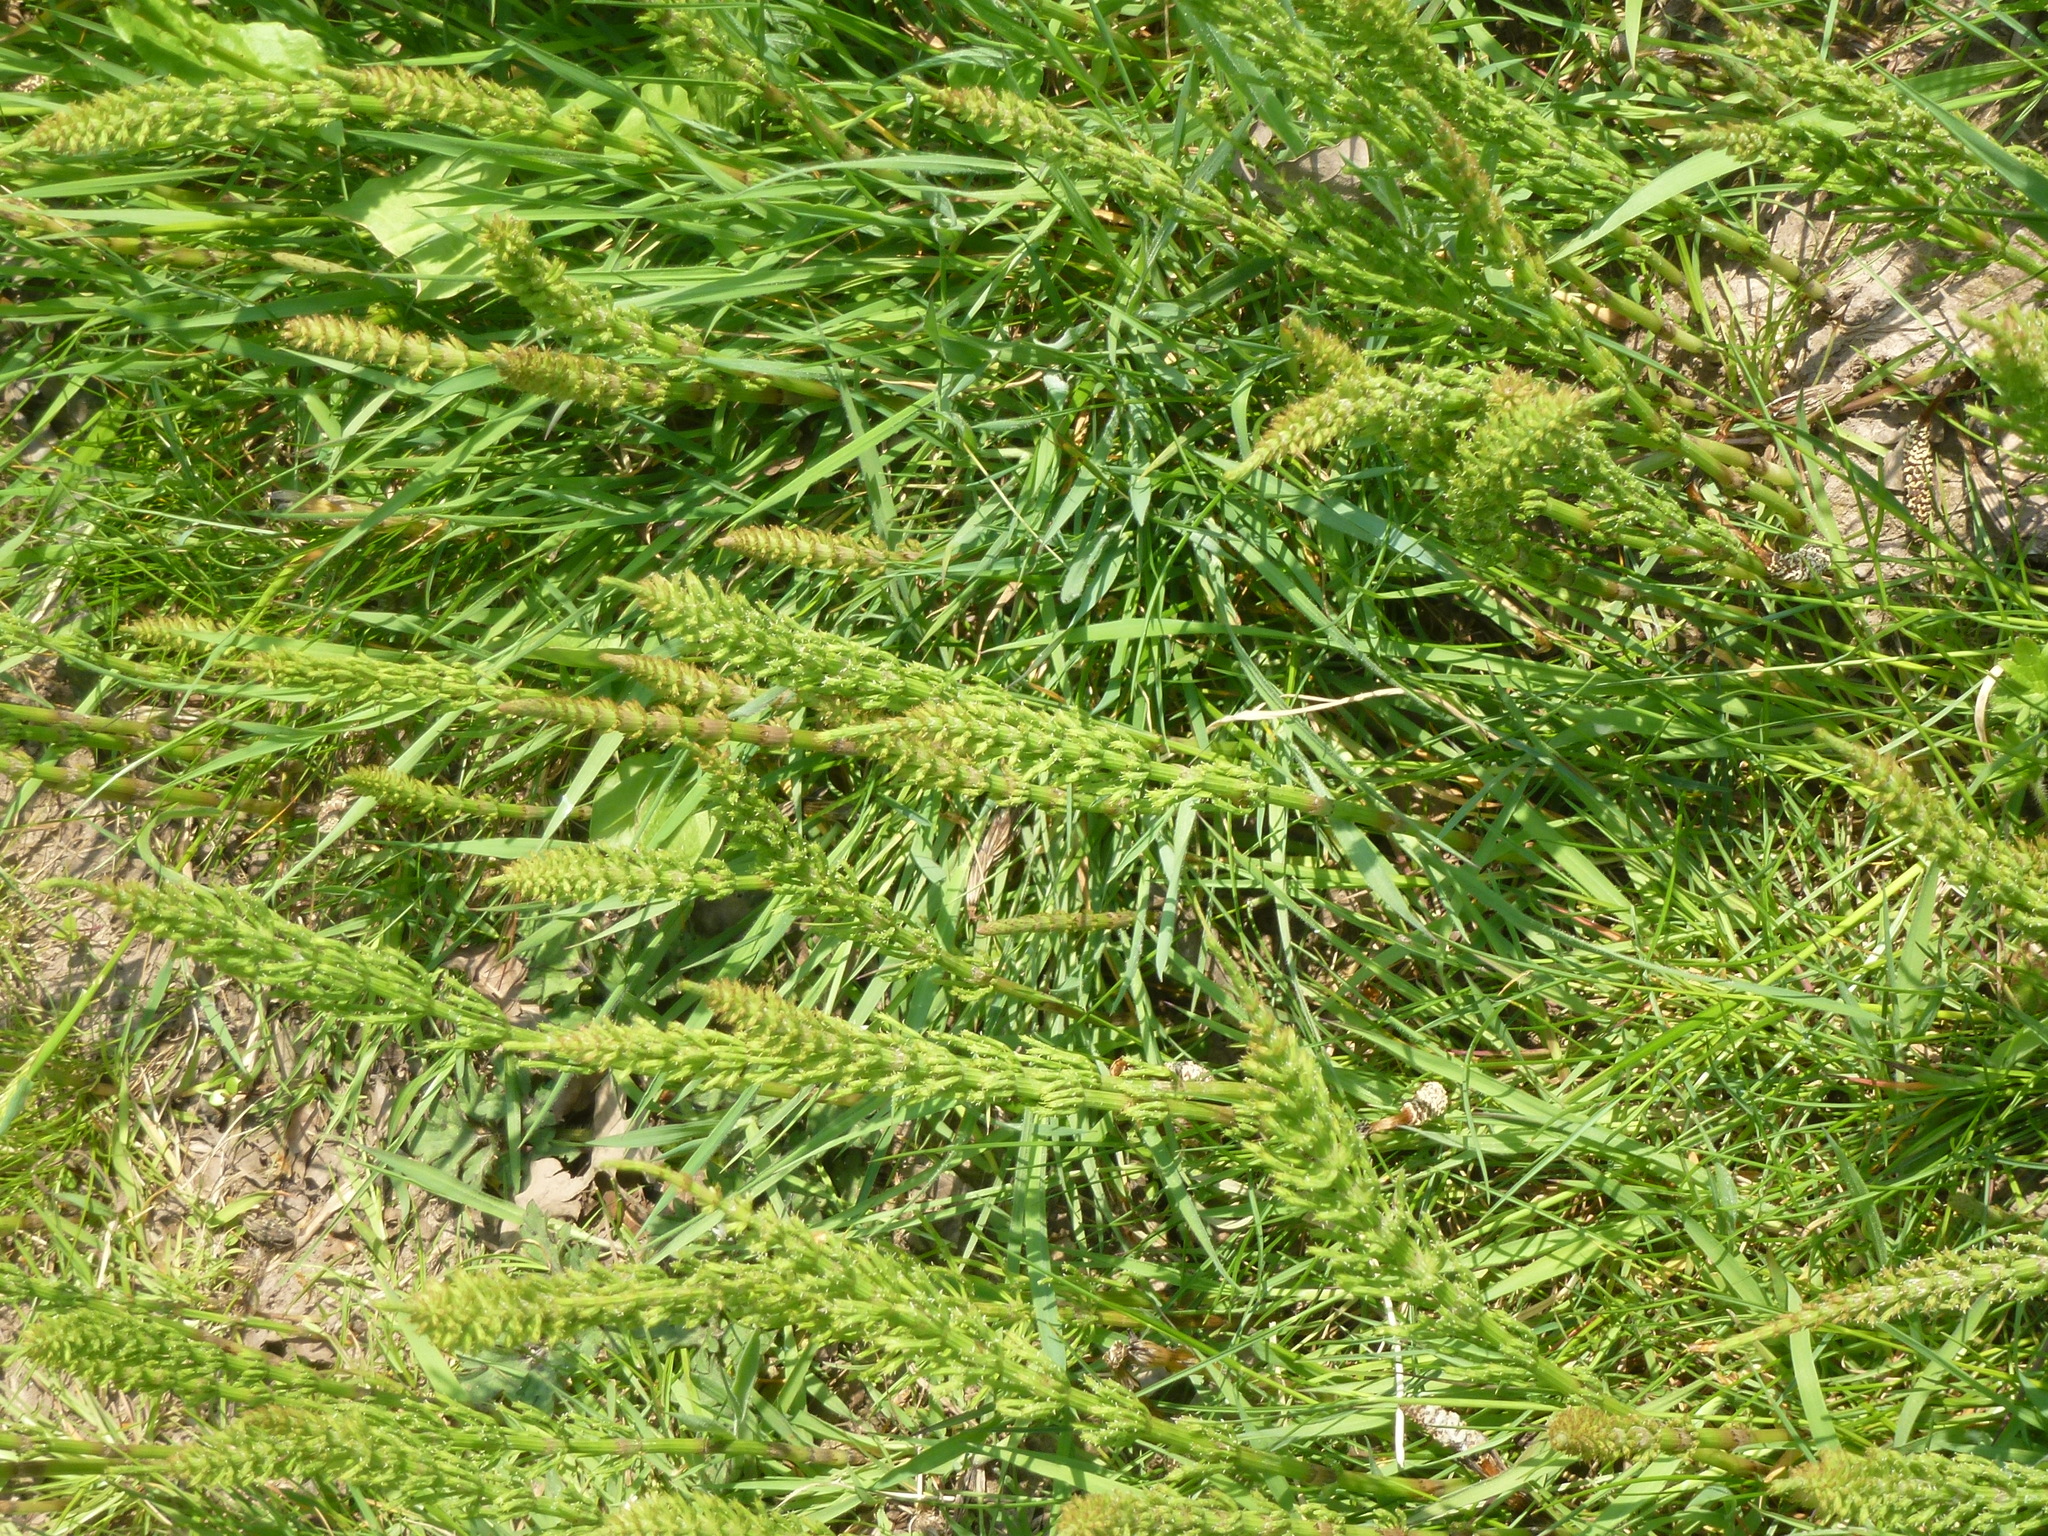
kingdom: Plantae
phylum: Tracheophyta
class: Polypodiopsida
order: Equisetales
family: Equisetaceae
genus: Equisetum
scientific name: Equisetum arvense
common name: Field horsetail
